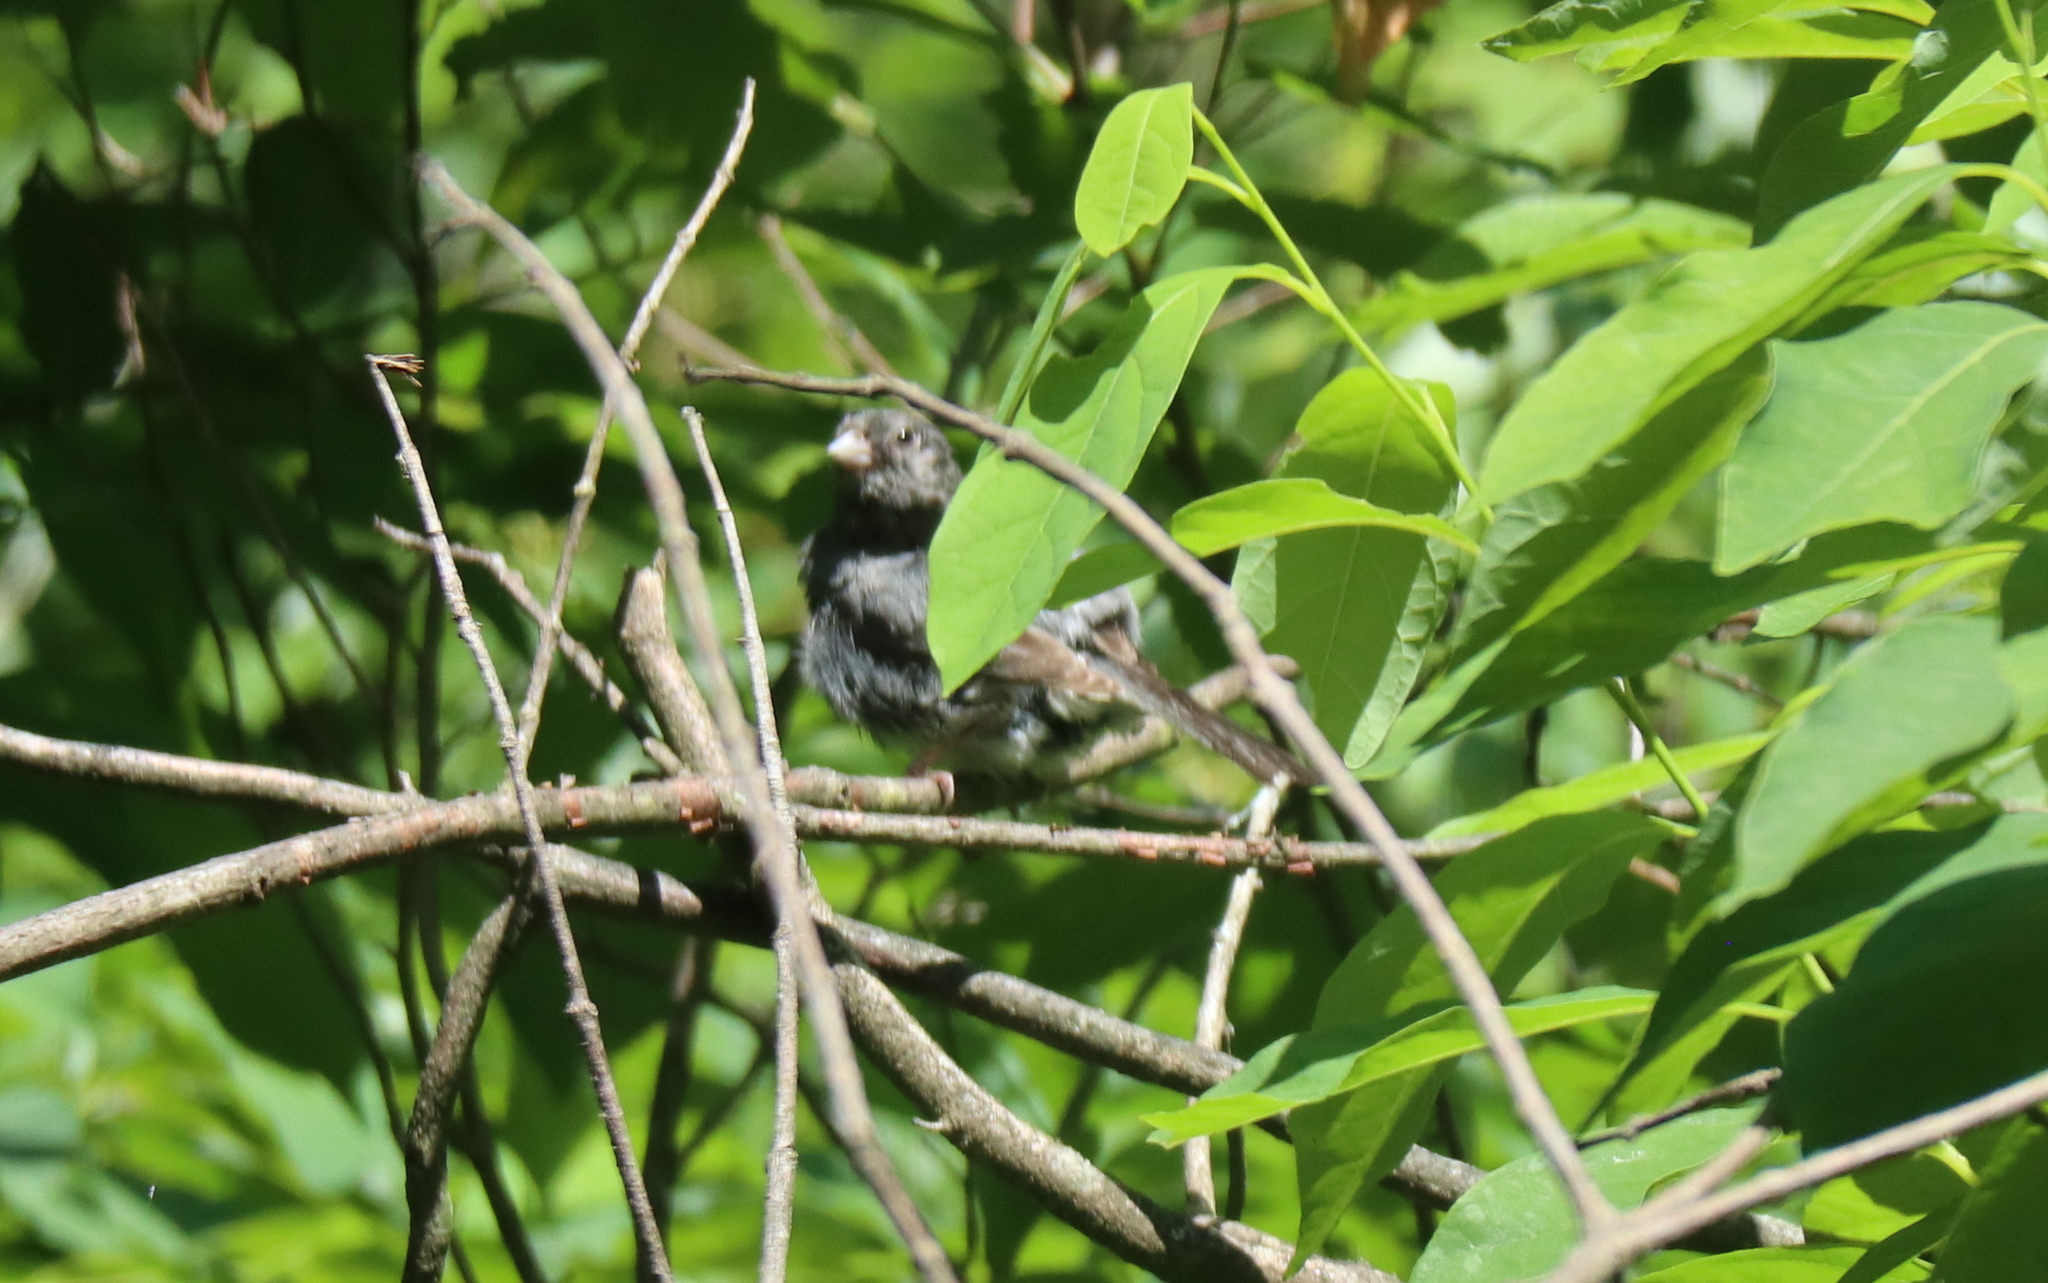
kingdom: Animalia
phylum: Chordata
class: Aves
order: Passeriformes
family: Passerellidae
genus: Junco
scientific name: Junco hyemalis
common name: Dark-eyed junco
